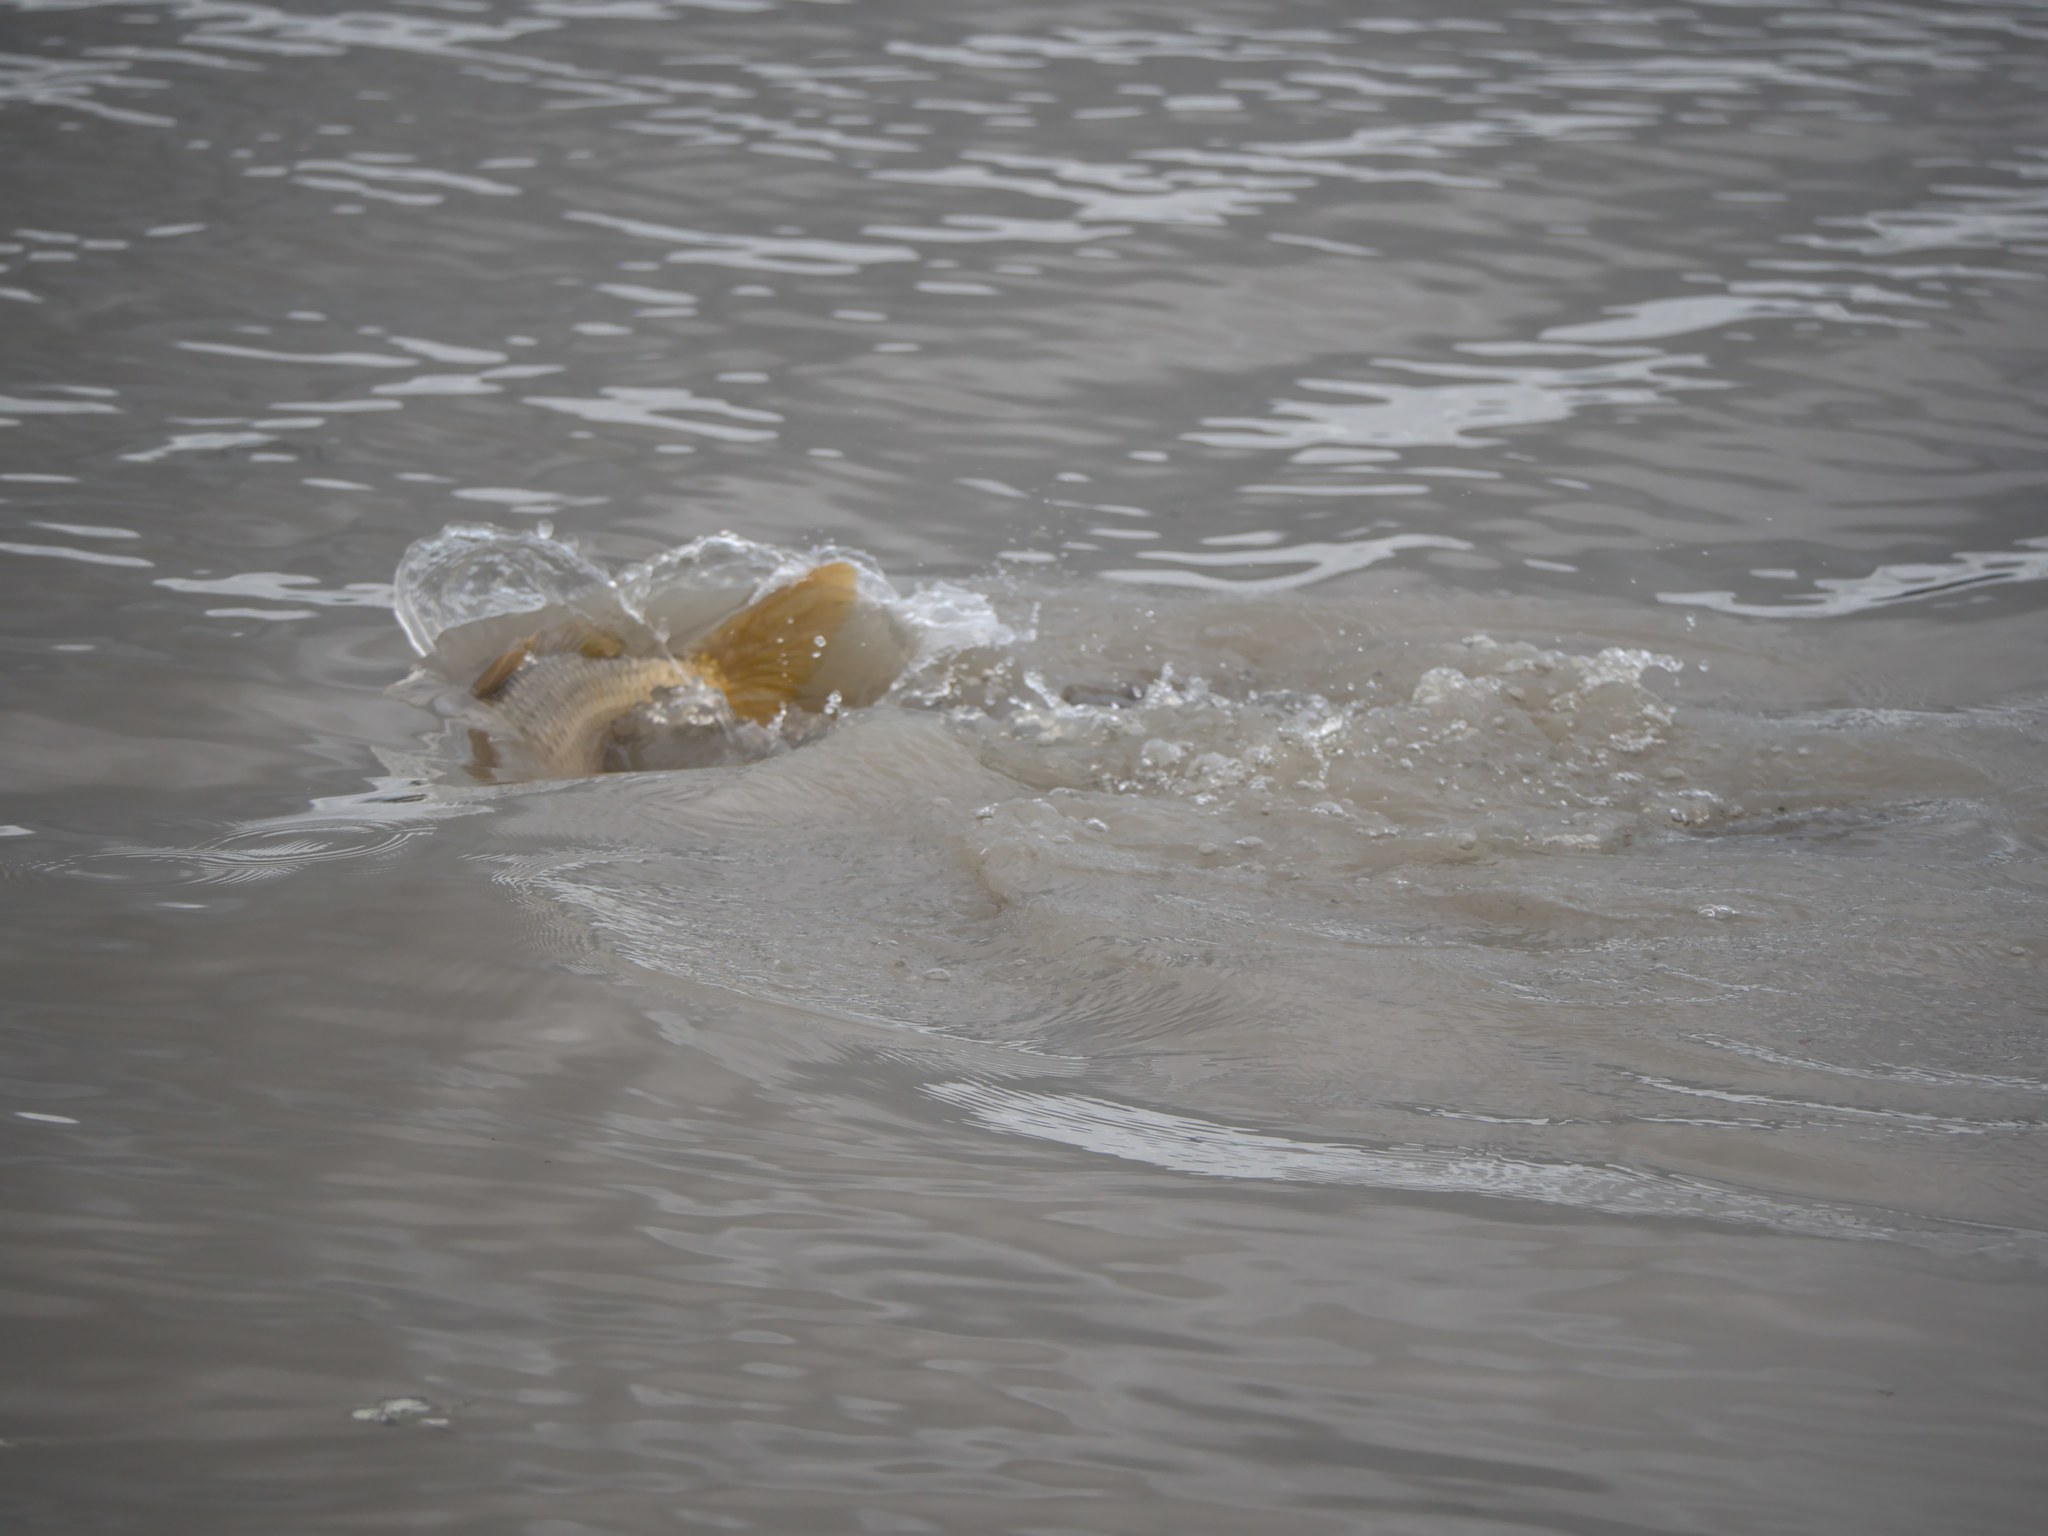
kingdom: Animalia
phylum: Chordata
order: Cypriniformes
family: Cyprinidae
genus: Cyprinus
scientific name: Cyprinus carpio
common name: Common carp
